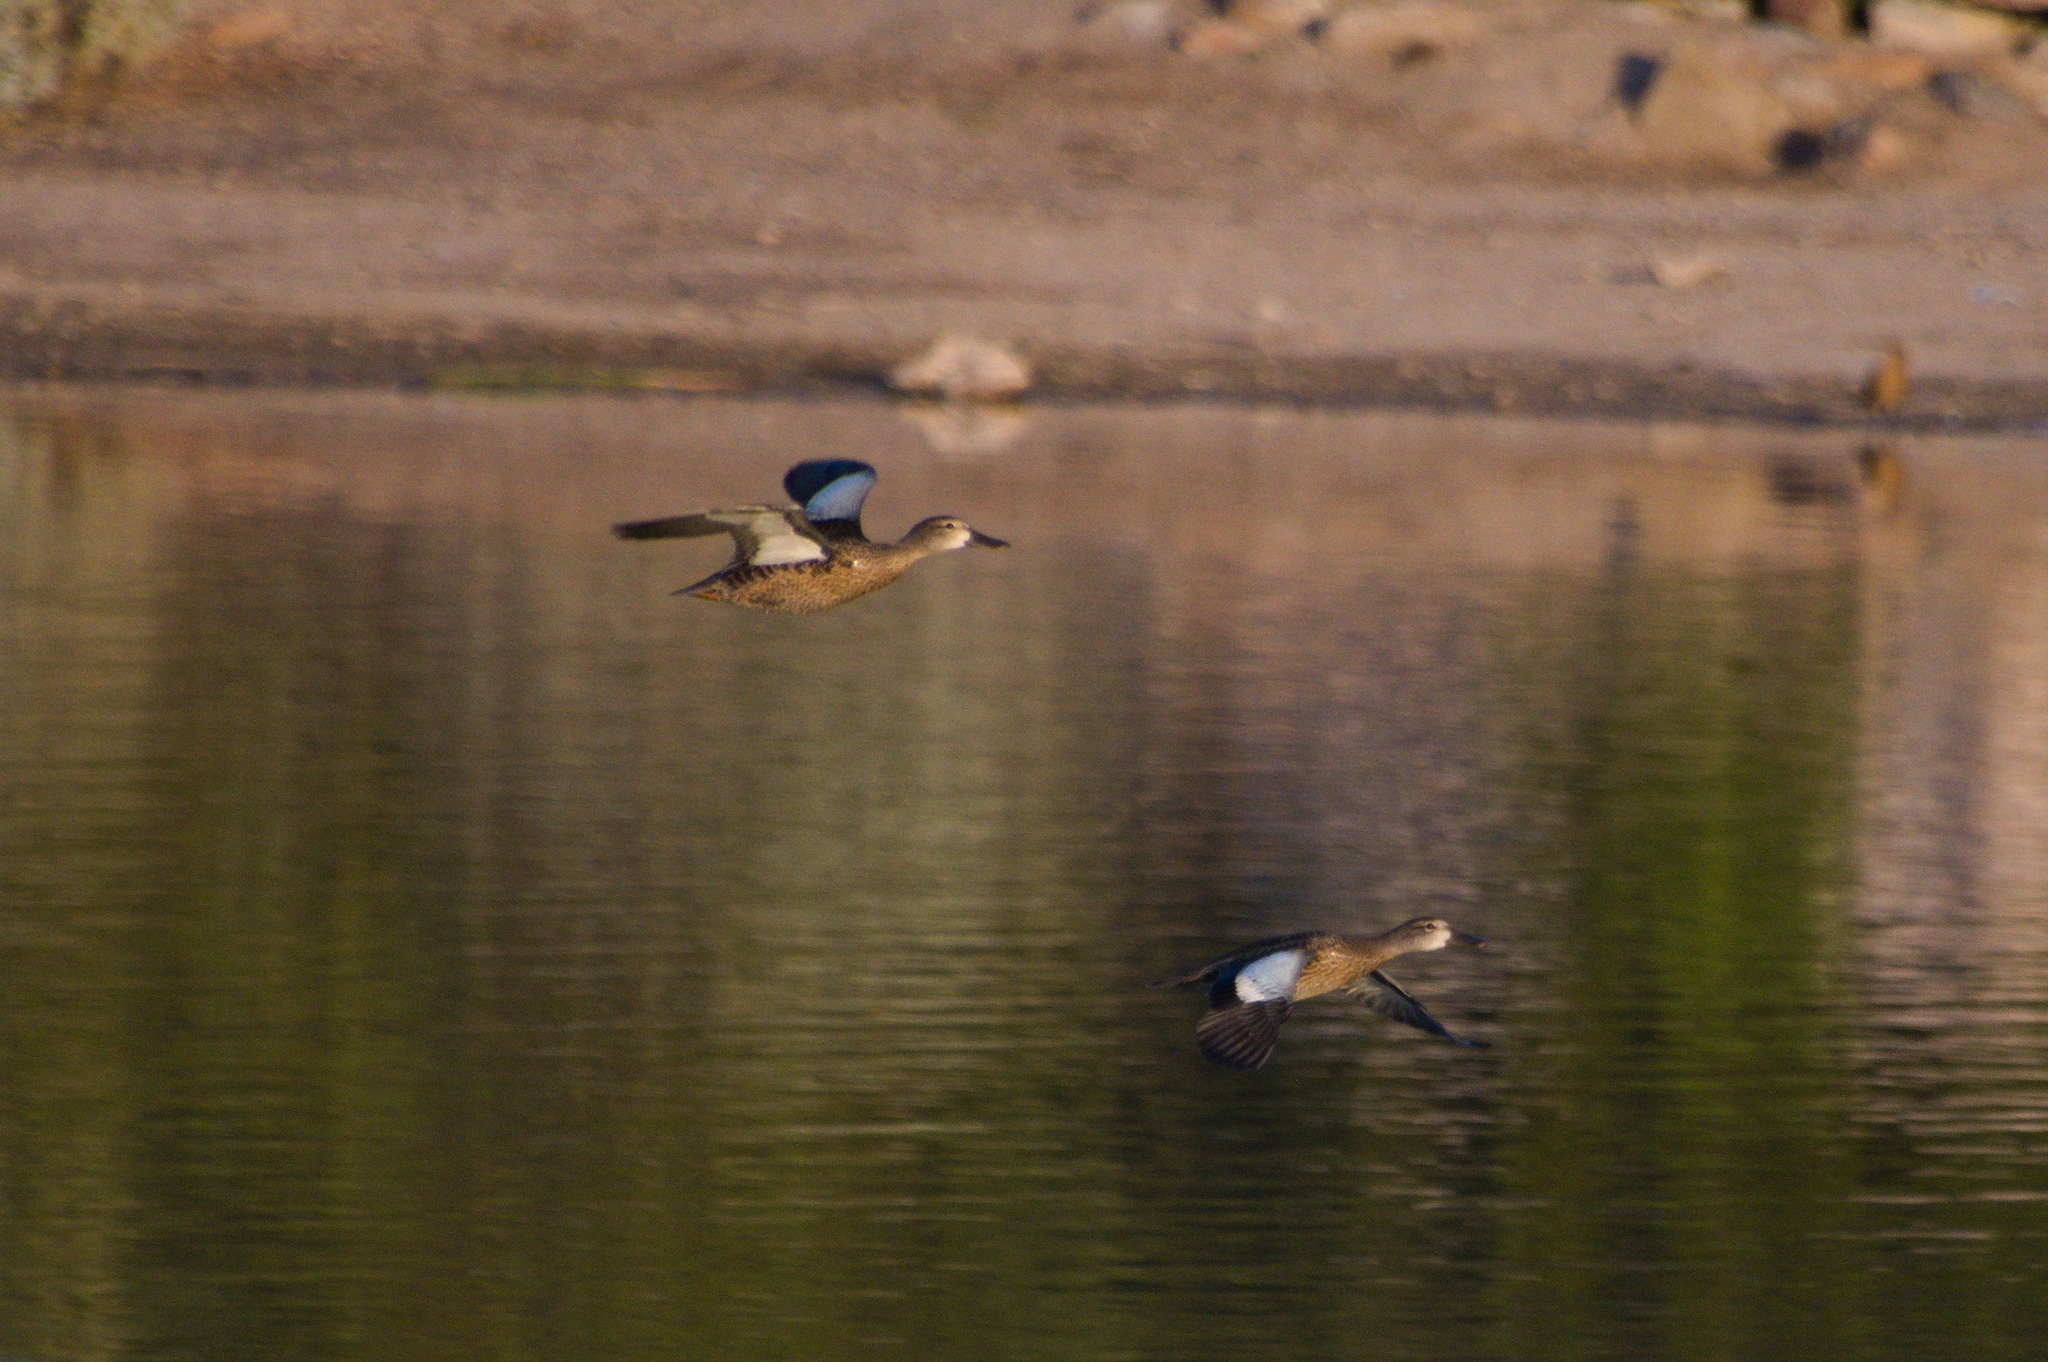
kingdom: Animalia
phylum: Chordata
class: Aves
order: Anseriformes
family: Anatidae
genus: Spatula
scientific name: Spatula discors
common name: Blue-winged teal
